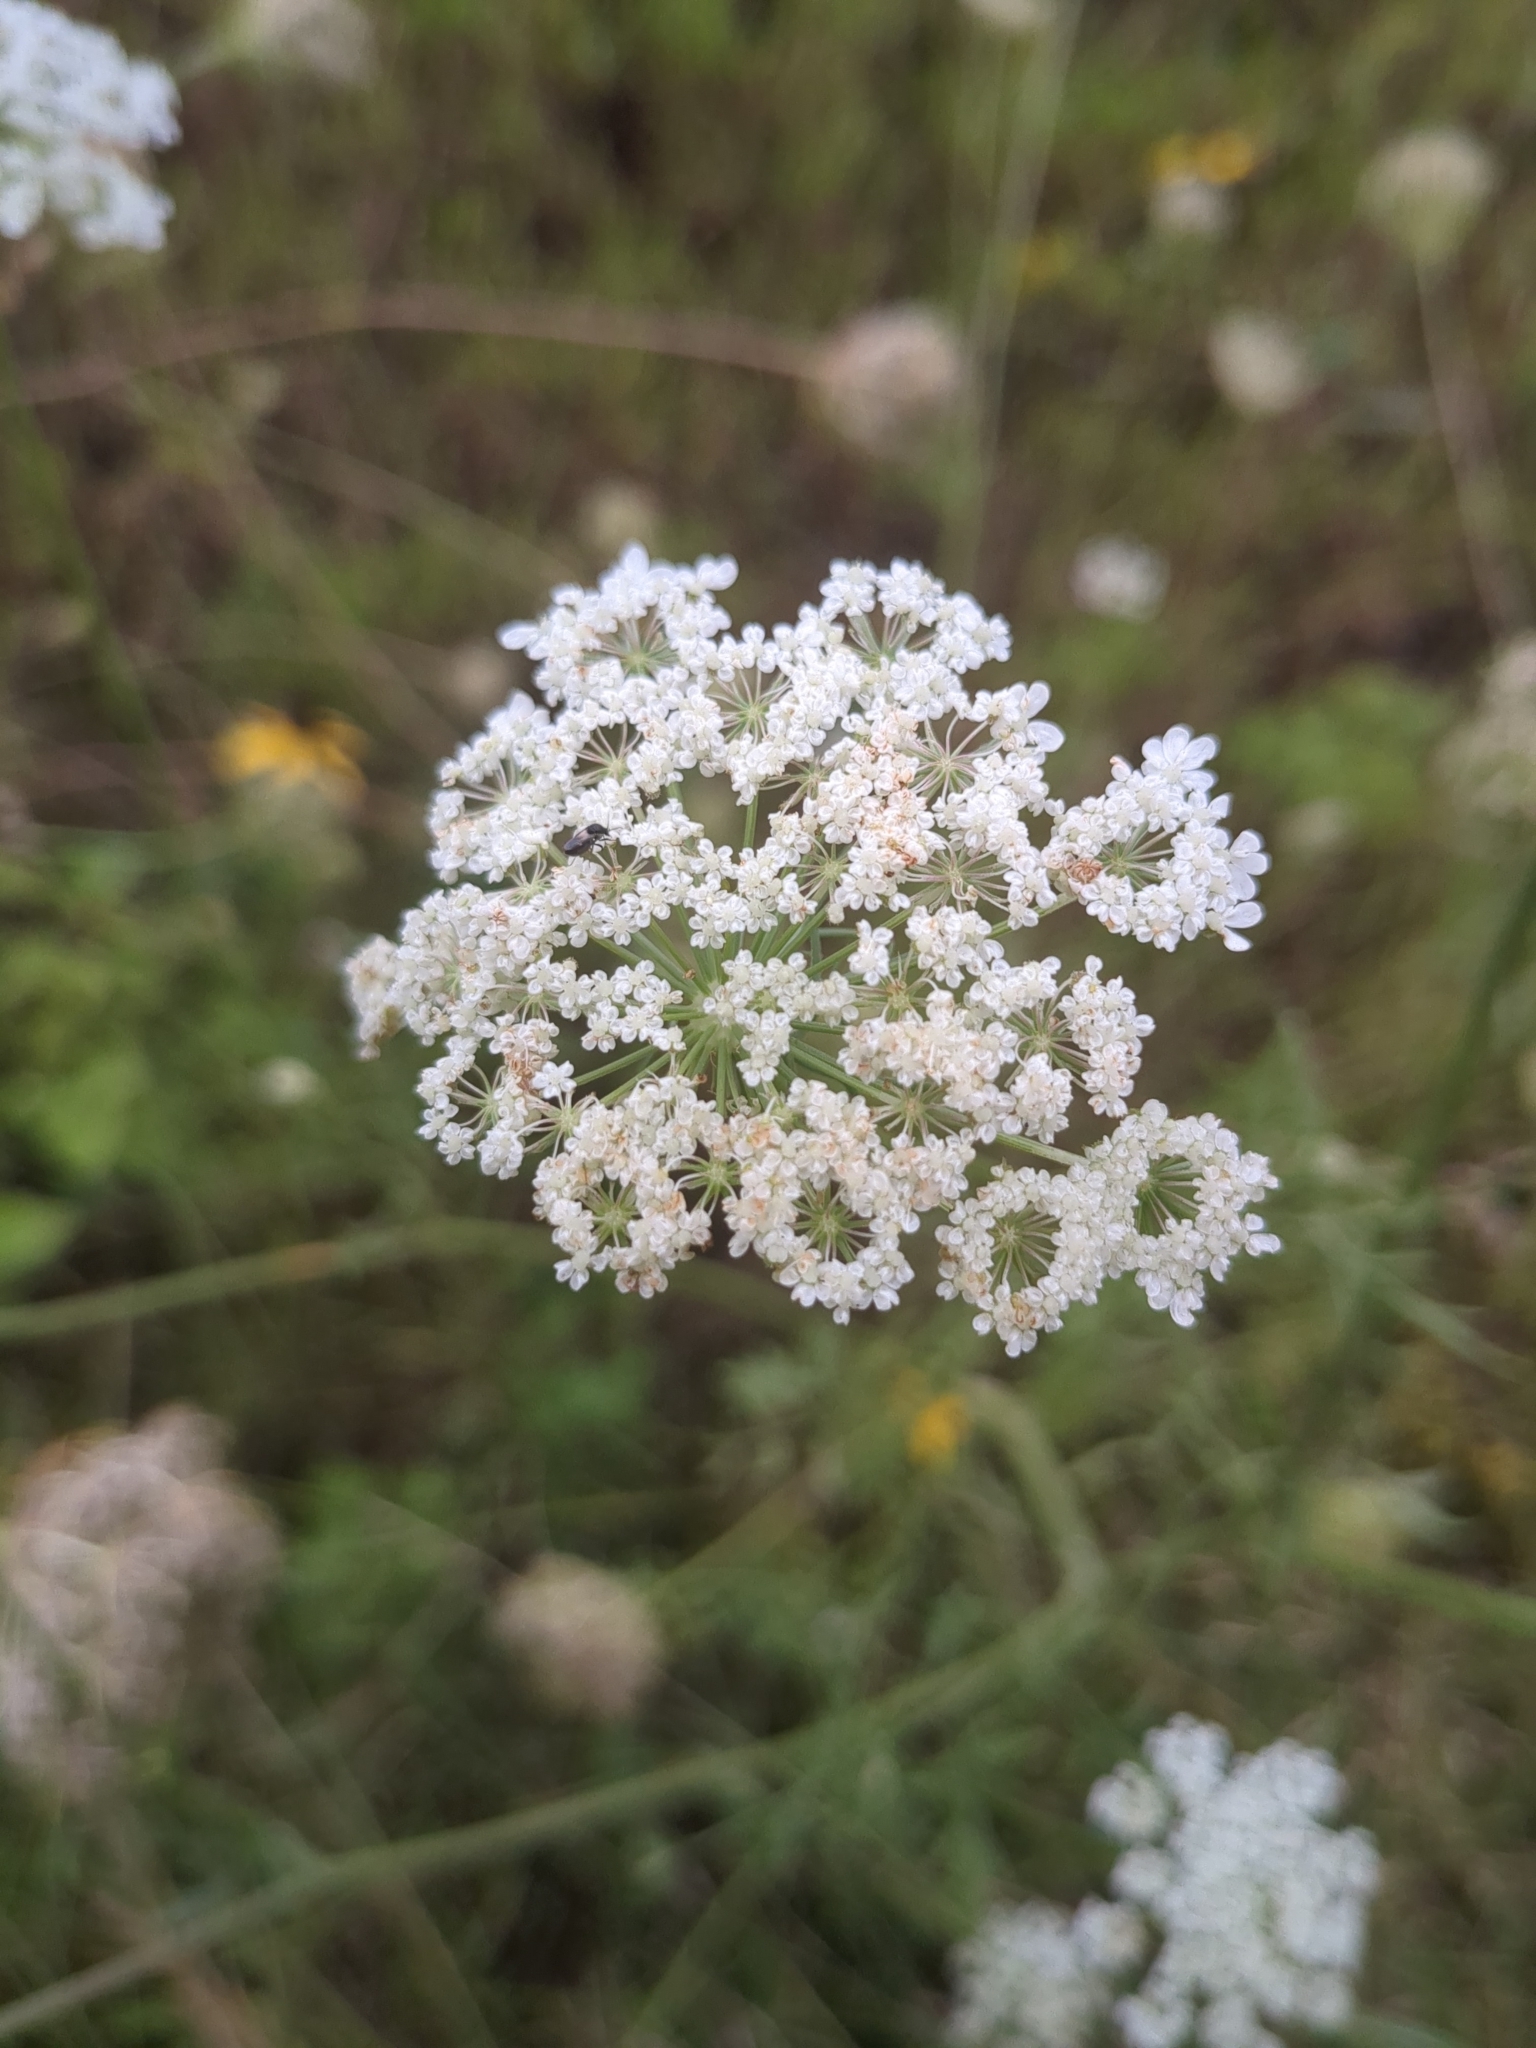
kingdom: Plantae
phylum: Tracheophyta
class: Magnoliopsida
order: Apiales
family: Apiaceae
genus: Daucus
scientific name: Daucus carota
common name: Wild carrot
